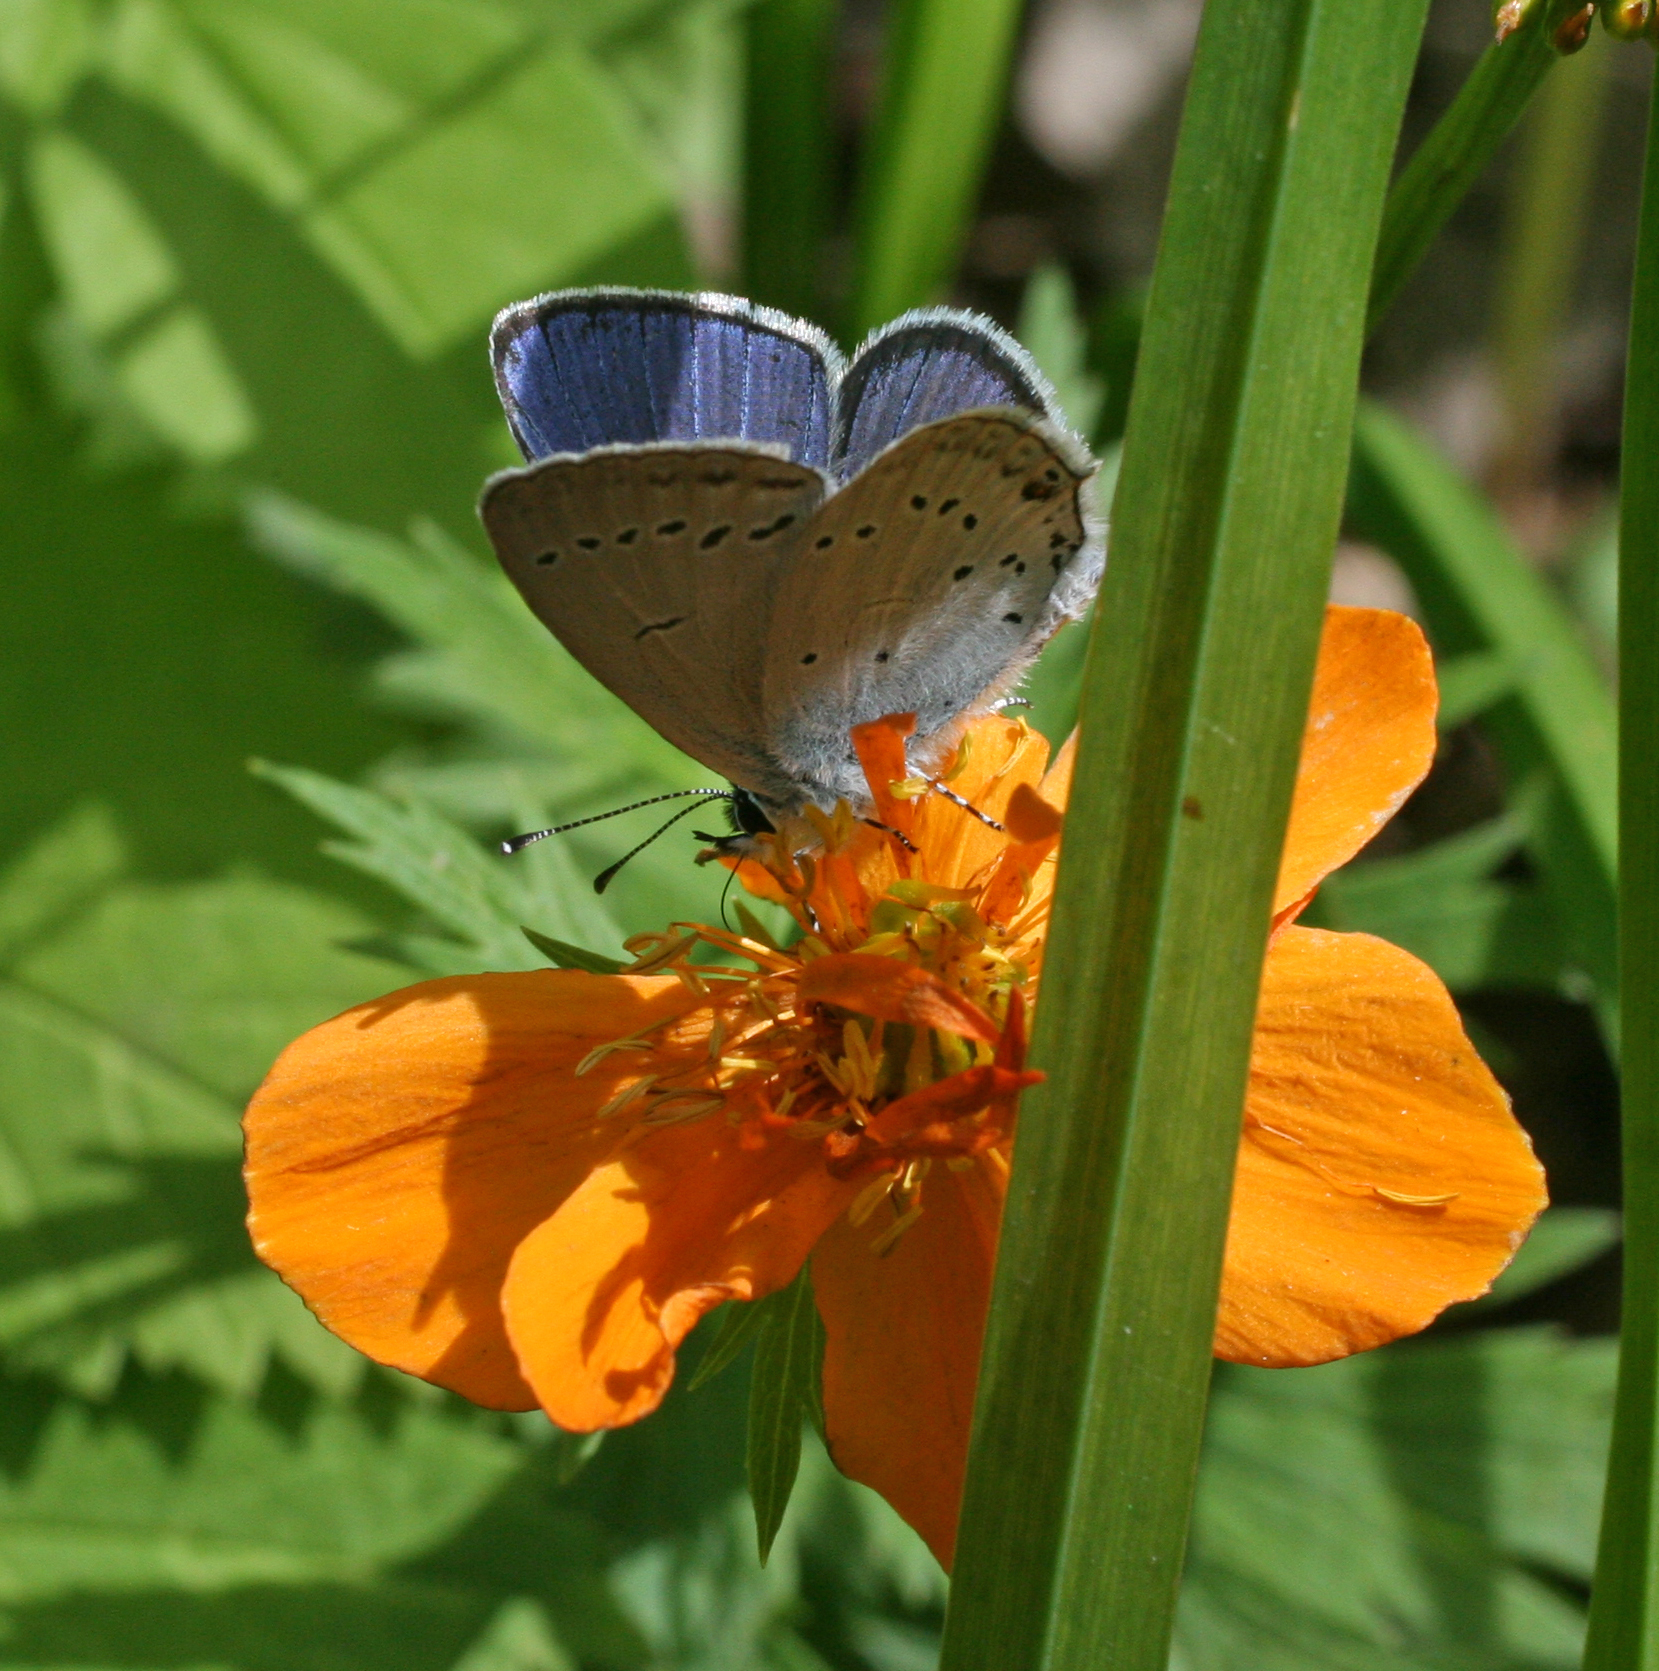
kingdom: Animalia
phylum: Arthropoda
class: Insecta
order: Lepidoptera
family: Lycaenidae
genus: Elkalyce
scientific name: Elkalyce alcetas
